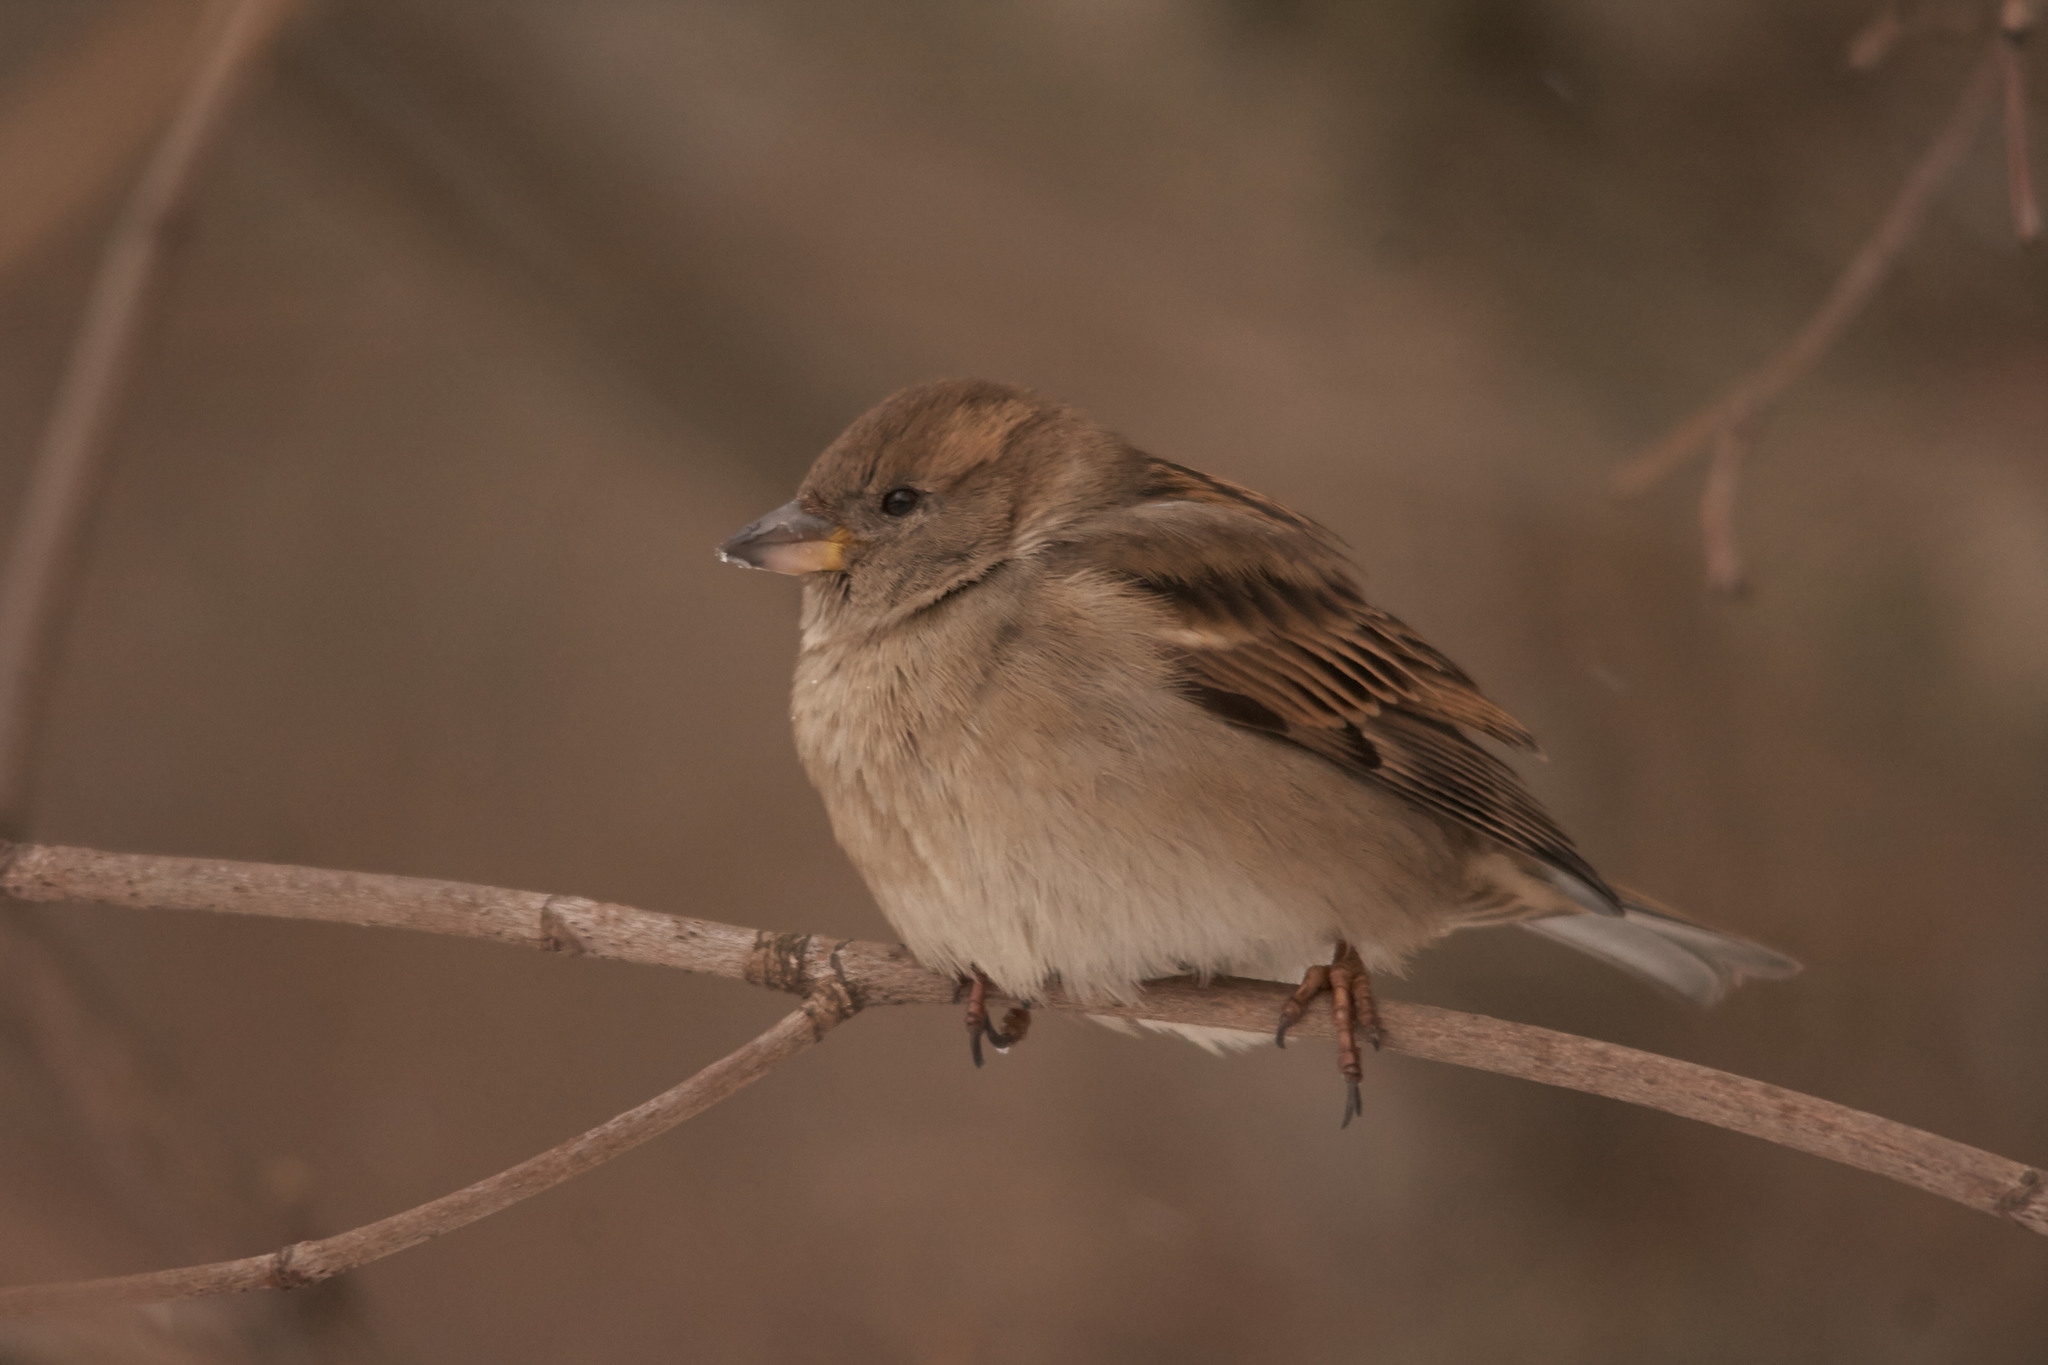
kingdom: Animalia
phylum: Chordata
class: Aves
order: Passeriformes
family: Passeridae
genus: Passer
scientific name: Passer domesticus
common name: House sparrow
